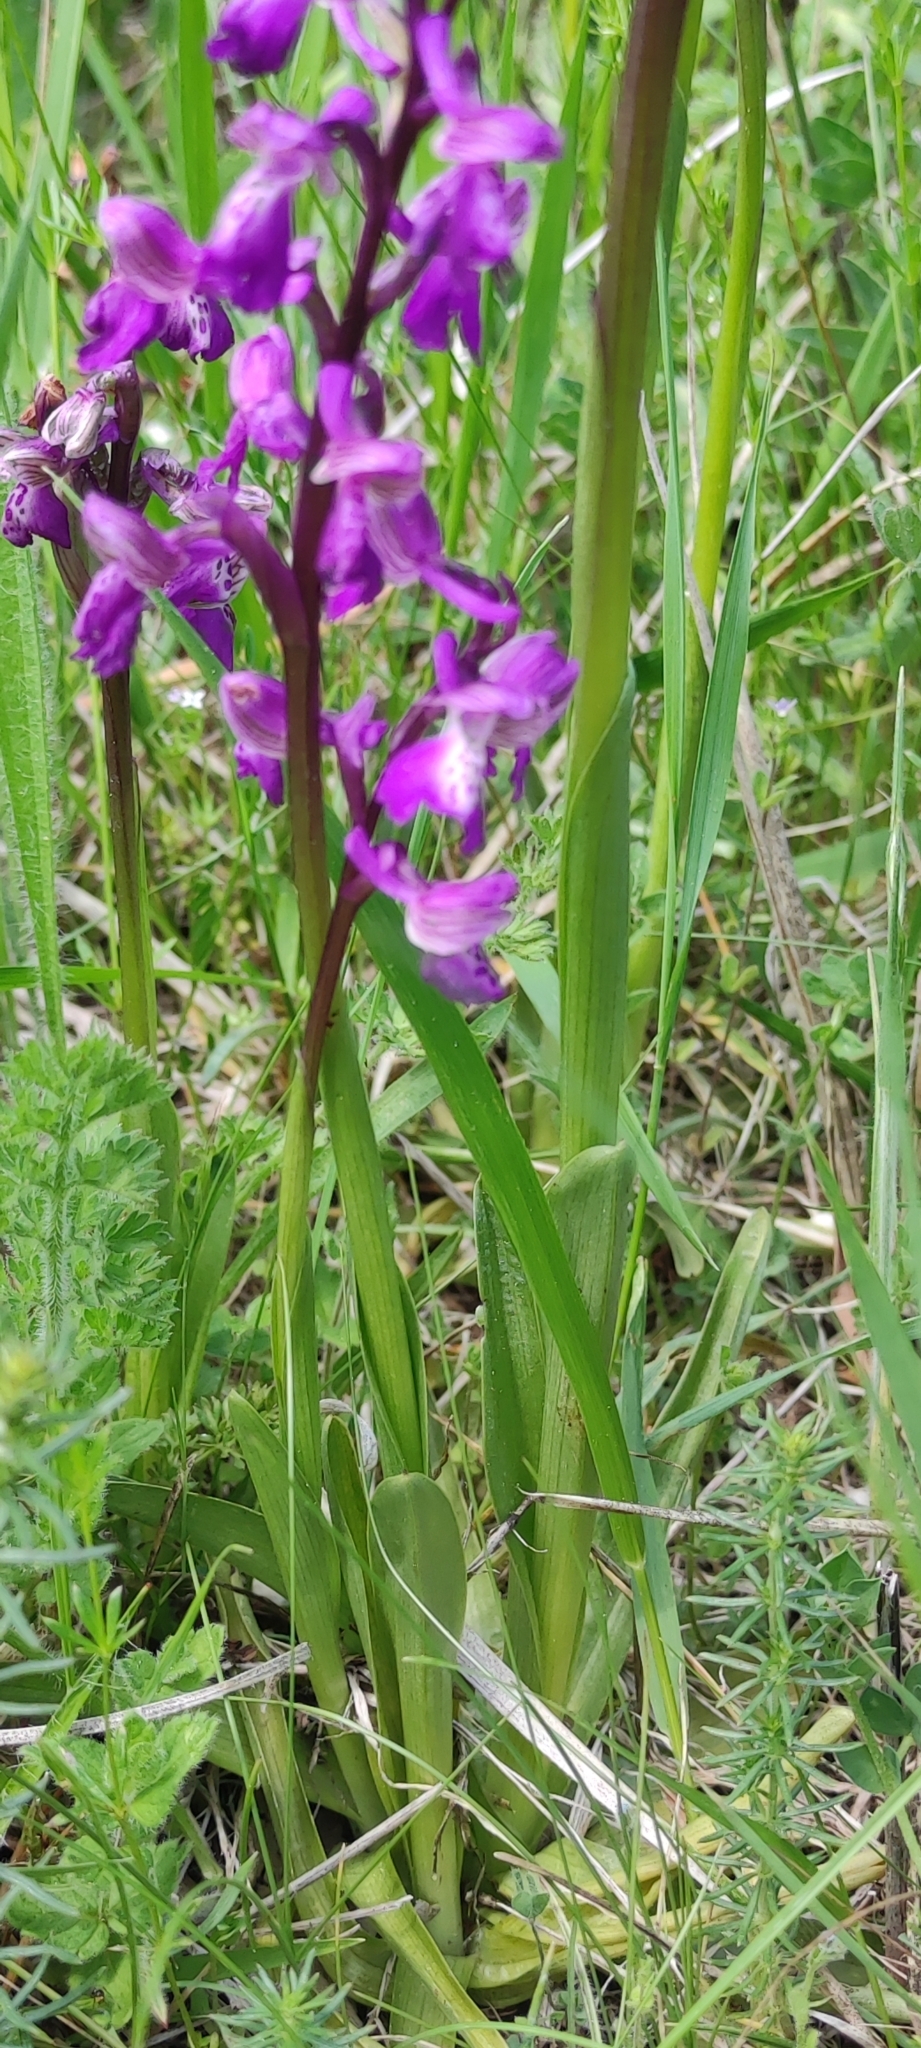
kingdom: Plantae
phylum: Tracheophyta
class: Liliopsida
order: Asparagales
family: Orchidaceae
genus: Anacamptis
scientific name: Anacamptis morio
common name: Green-winged orchid
